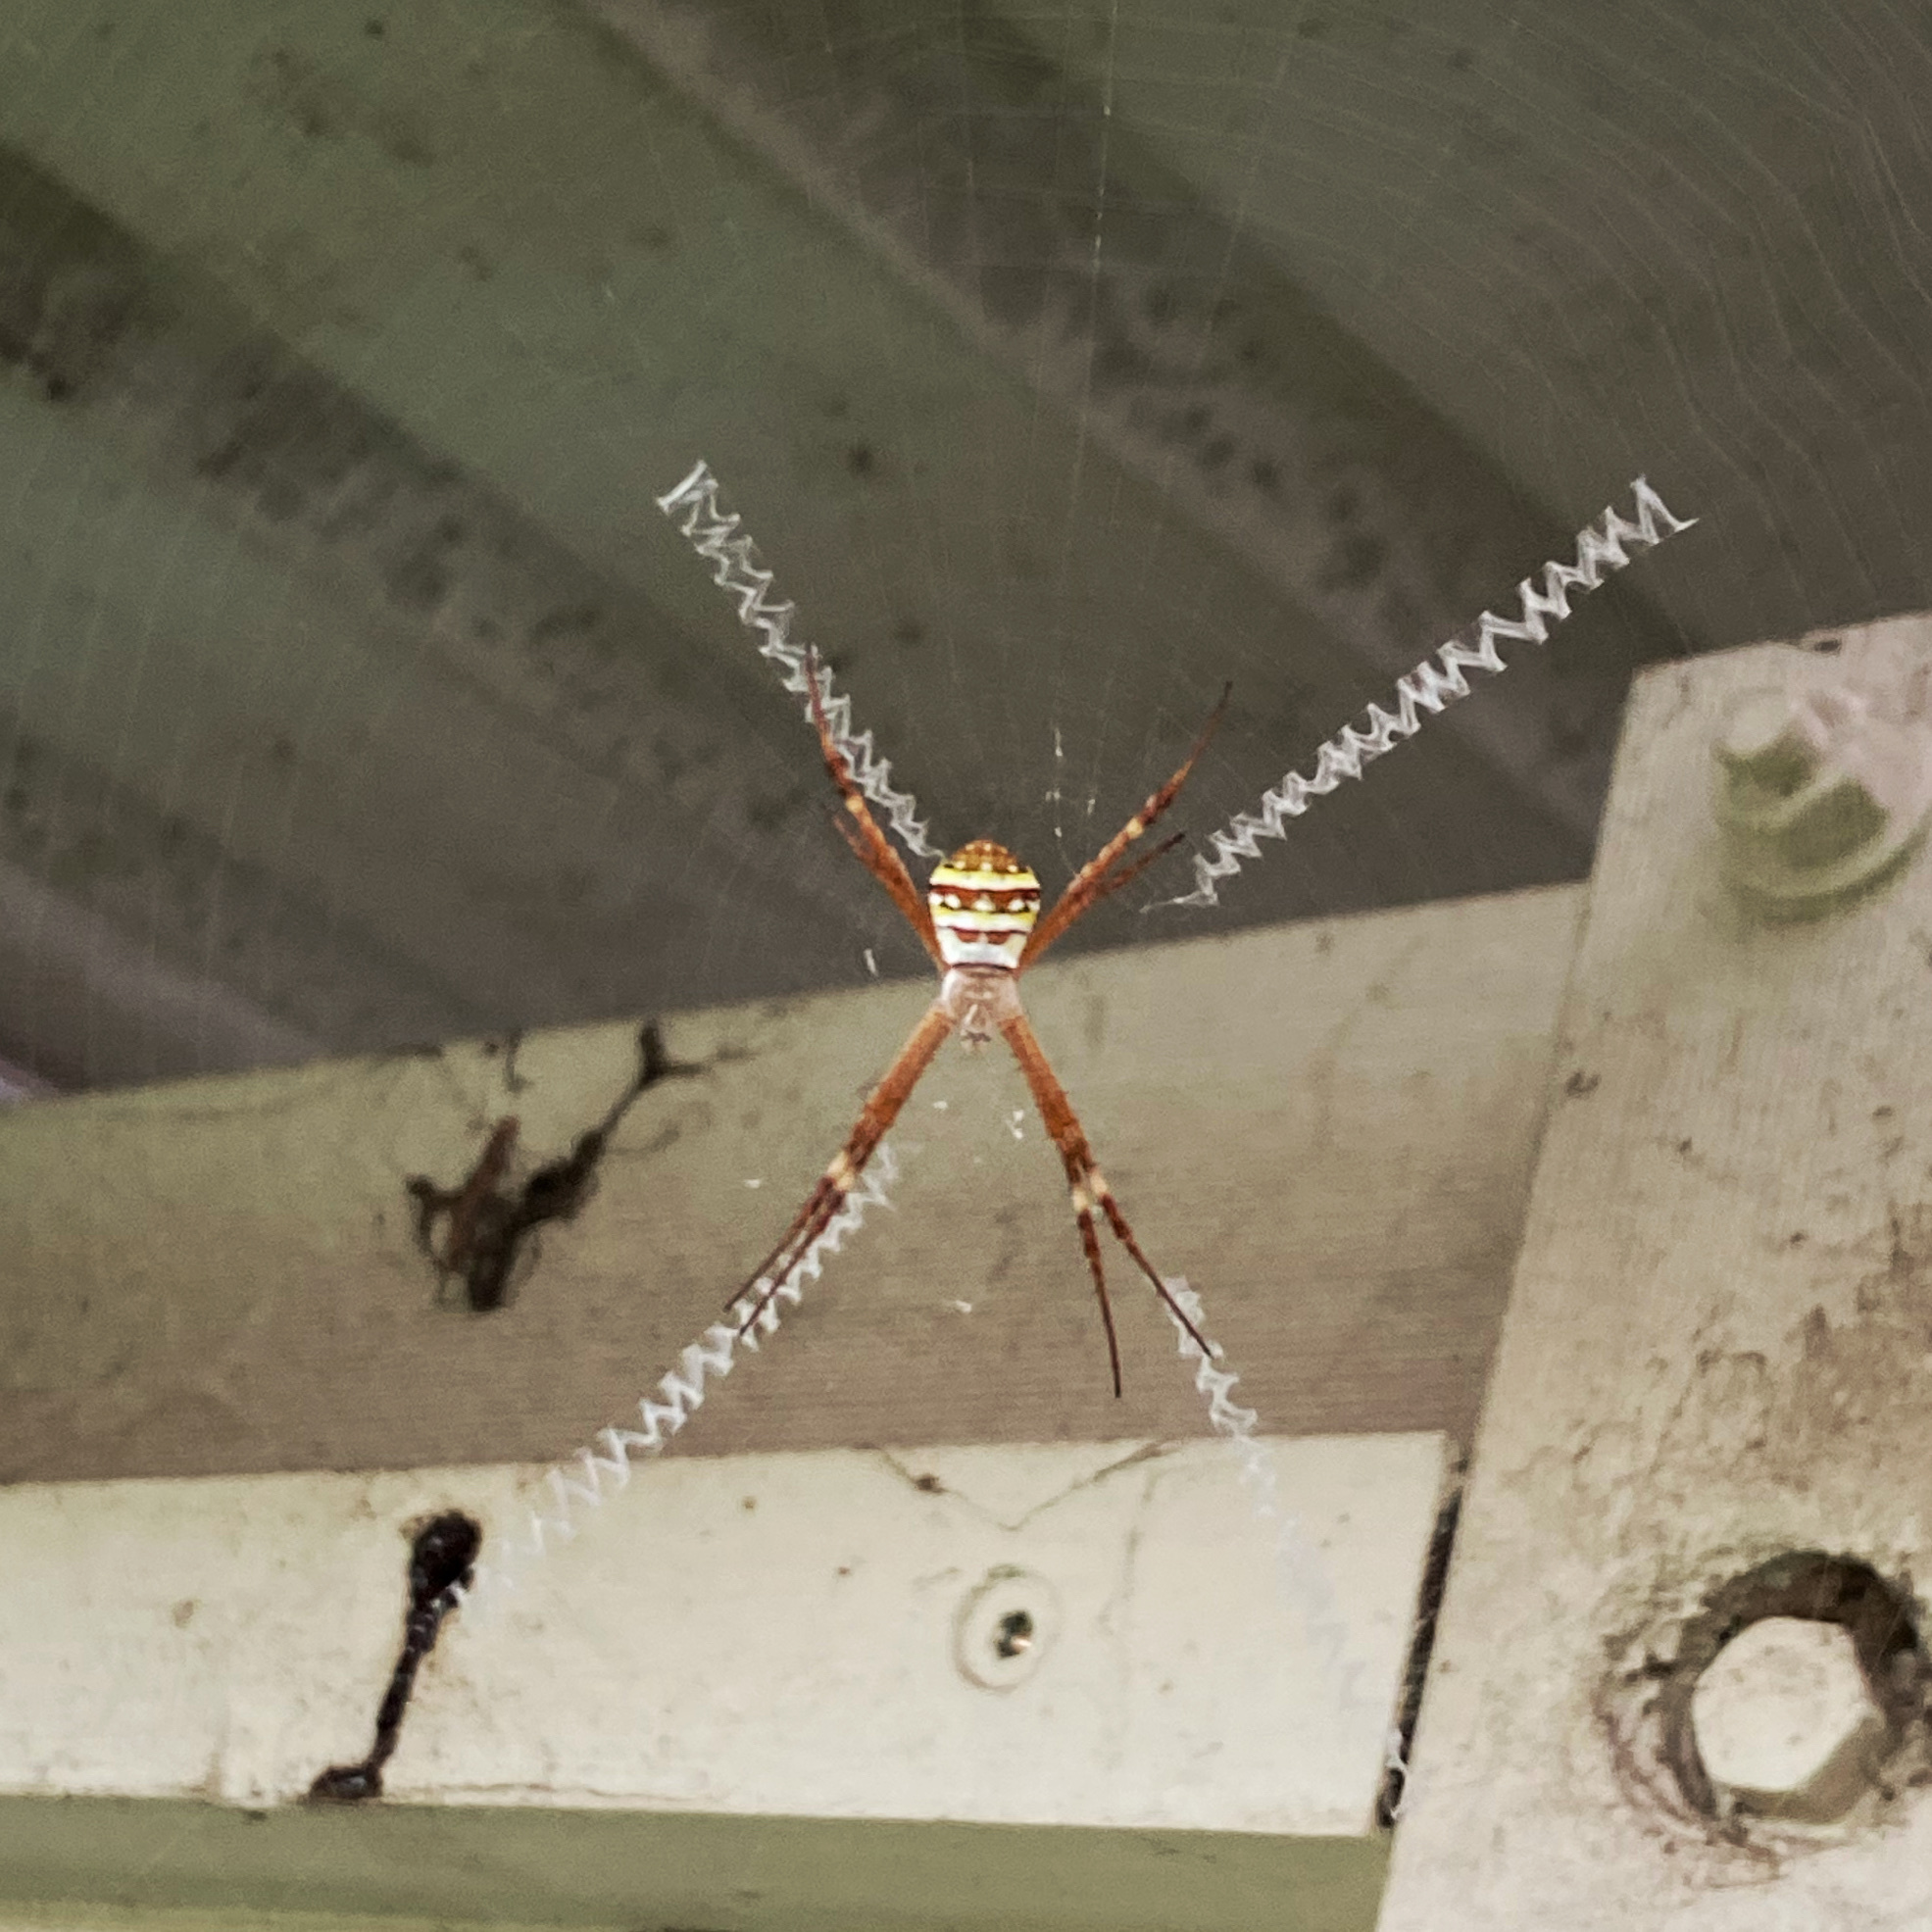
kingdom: Animalia
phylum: Arthropoda
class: Arachnida
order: Araneae
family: Araneidae
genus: Argiope
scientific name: Argiope keyserlingi
